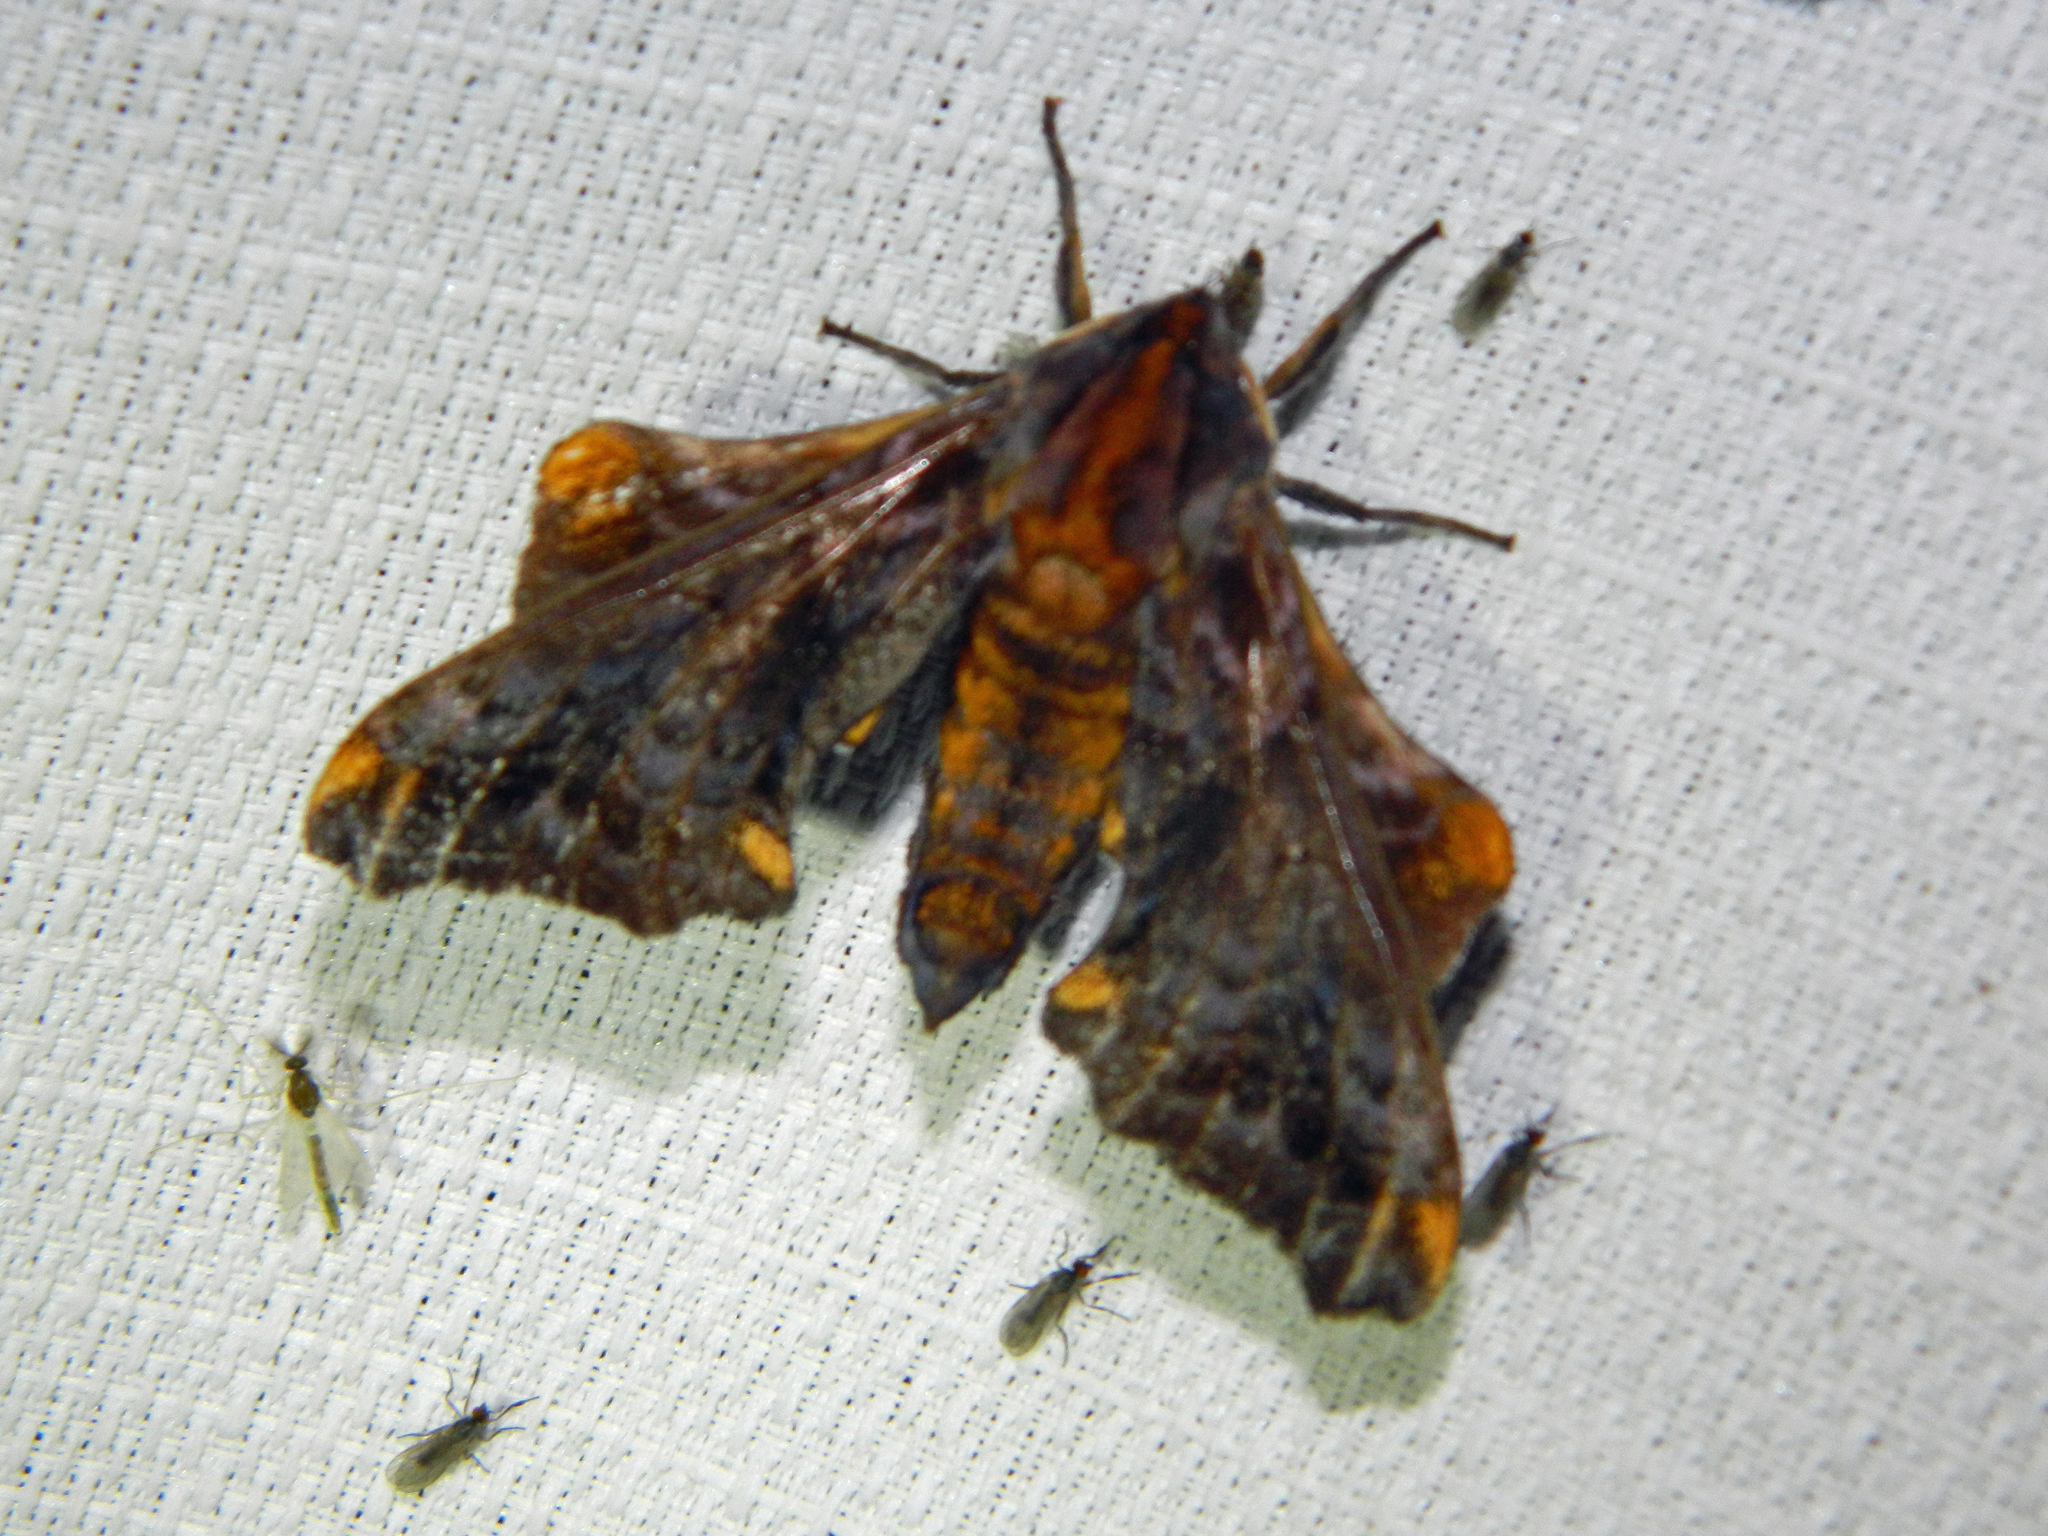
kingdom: Animalia
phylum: Arthropoda
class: Insecta
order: Lepidoptera
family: Sphingidae
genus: Paonias
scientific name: Paonias myops
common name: Small-eyed sphinx
